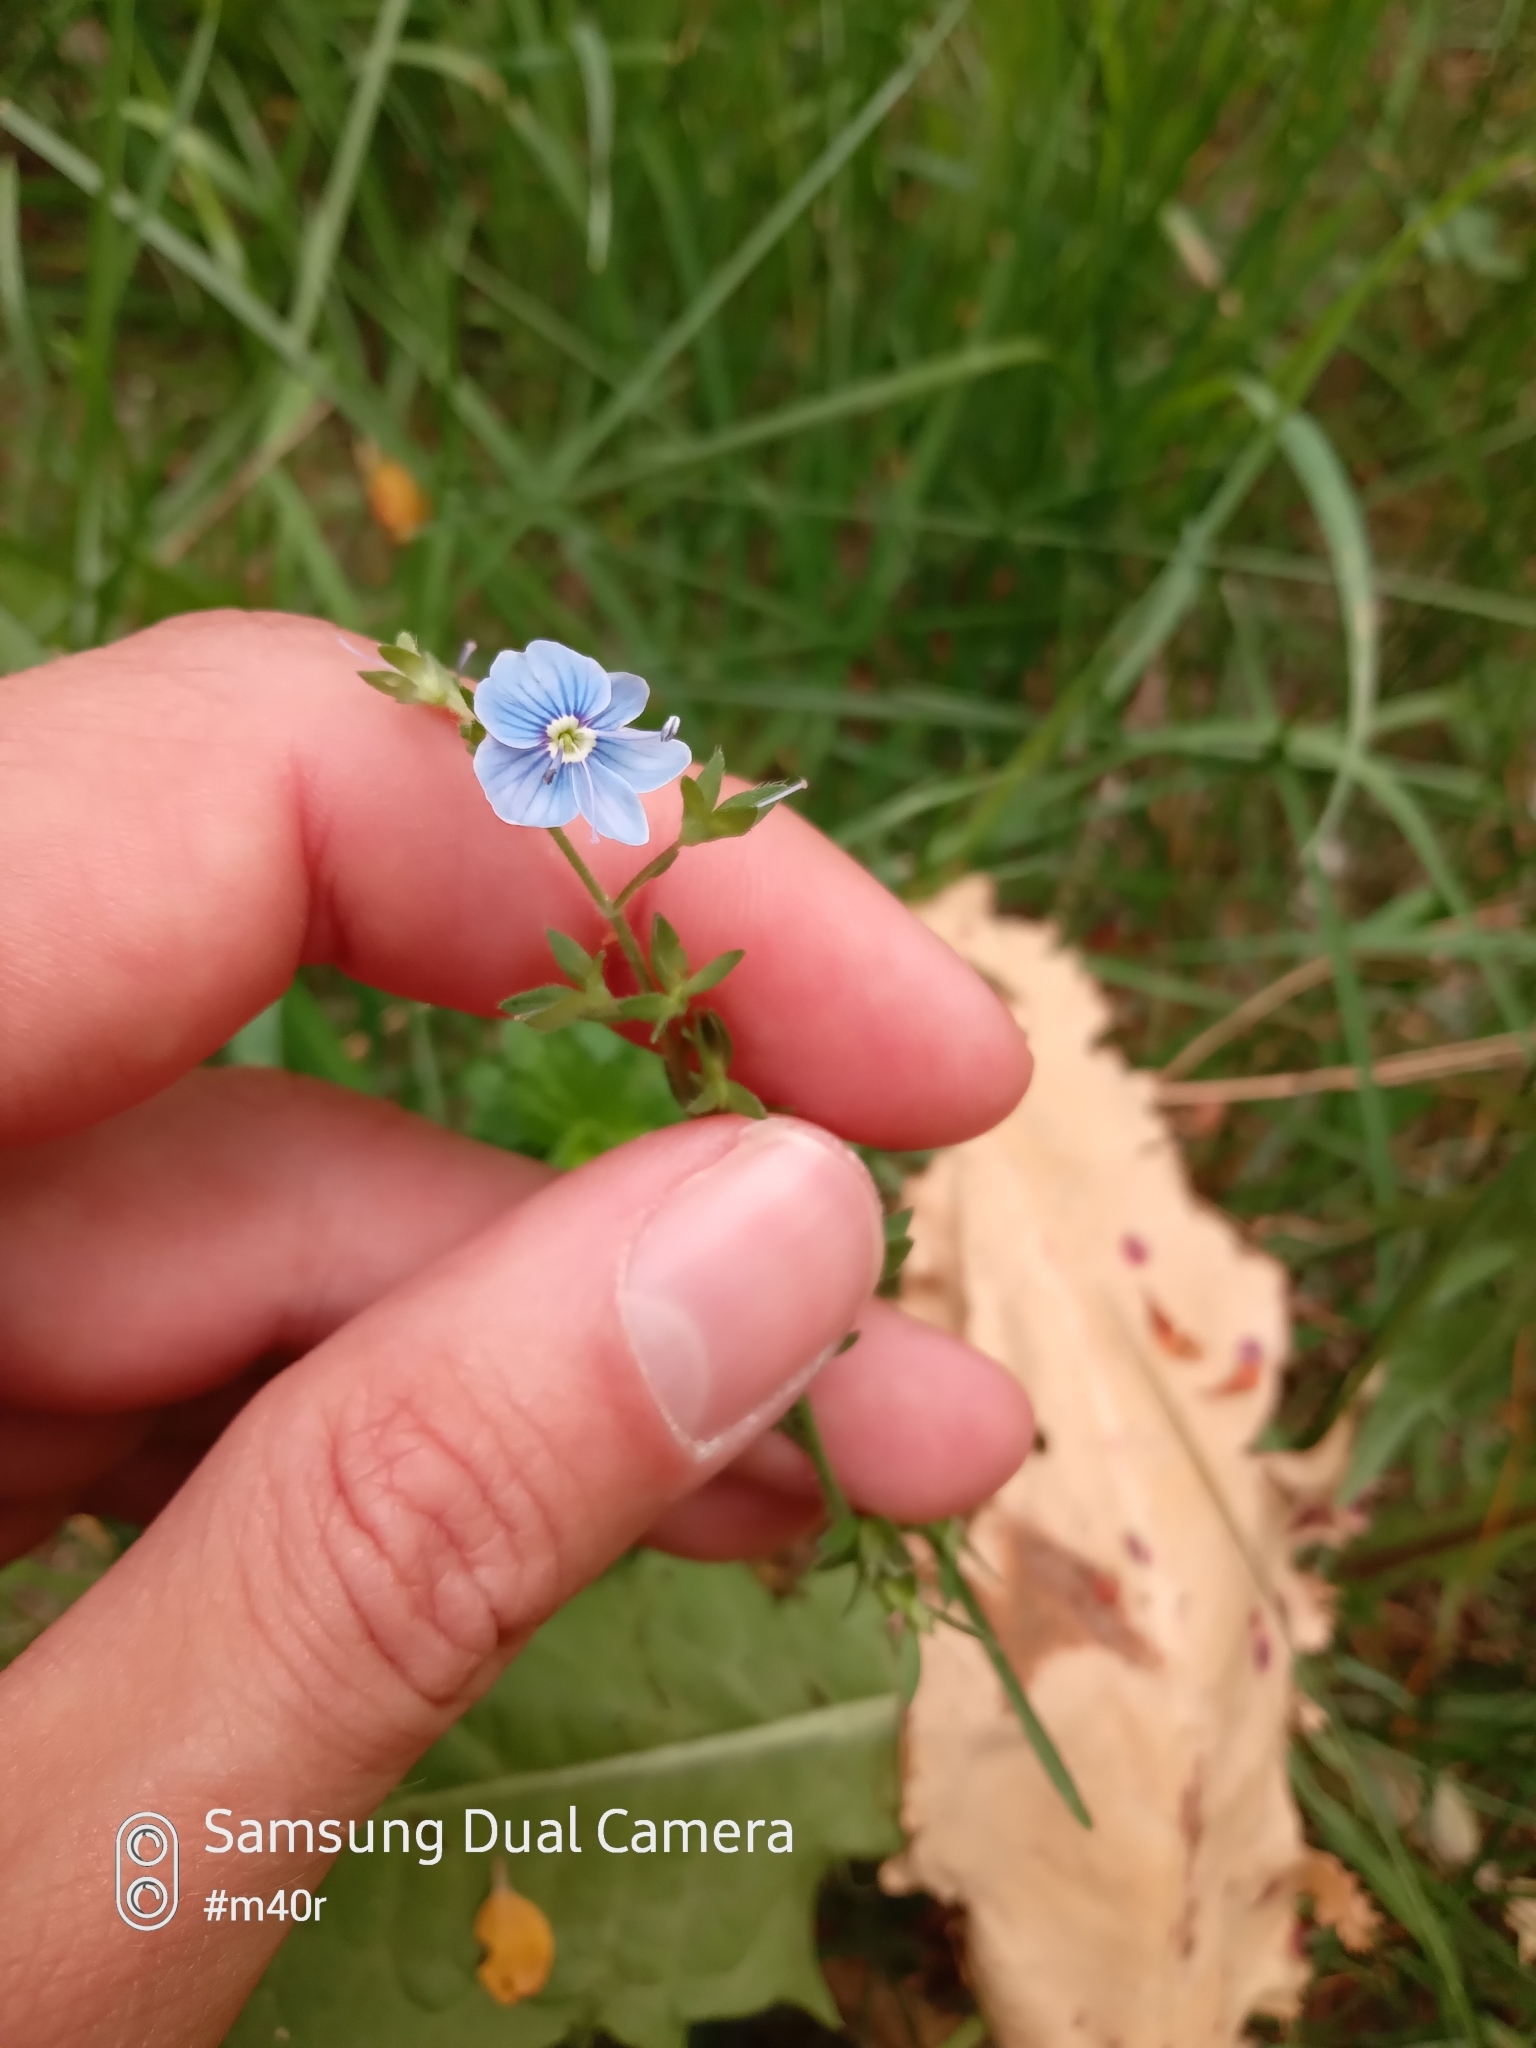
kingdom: Plantae
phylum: Tracheophyta
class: Magnoliopsida
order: Lamiales
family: Plantaginaceae
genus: Veronica
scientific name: Veronica chamaedrys
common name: Germander speedwell
